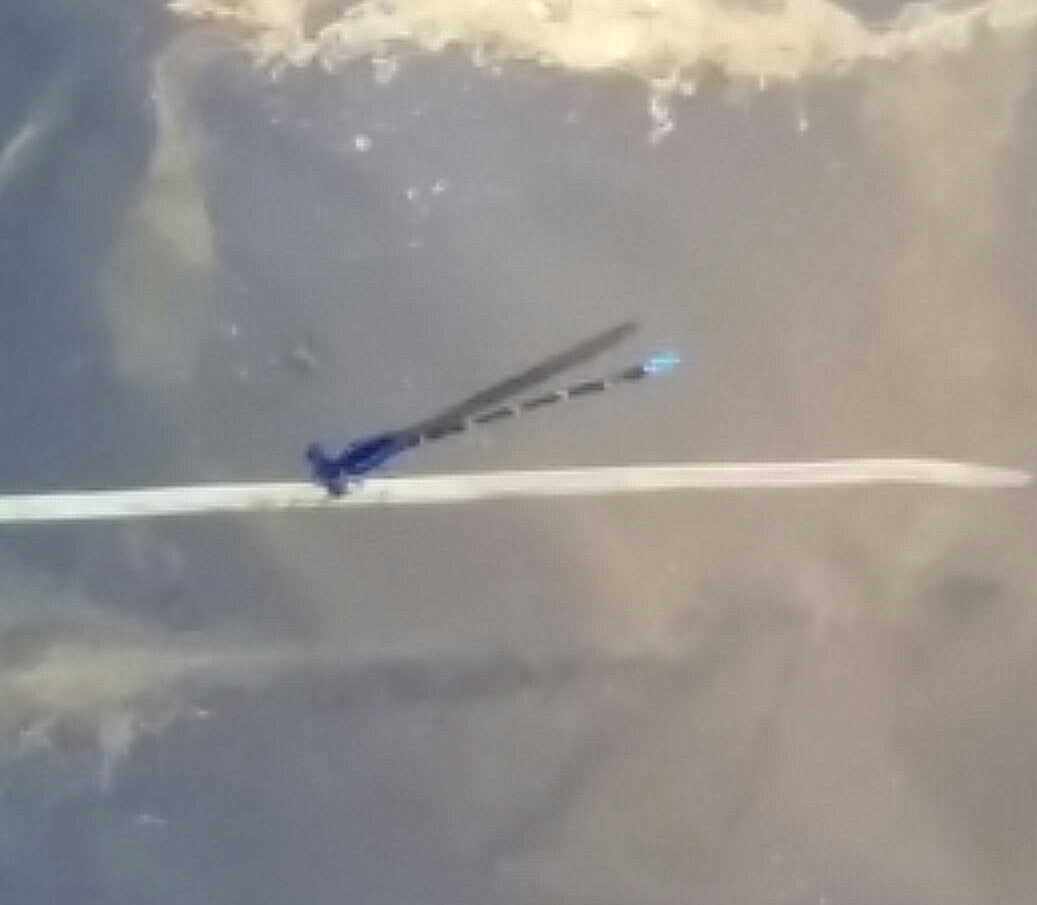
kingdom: Animalia
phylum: Arthropoda
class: Insecta
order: Odonata
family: Coenagrionidae
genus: Argia
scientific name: Argia sedula
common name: Blue-ringed dancer
